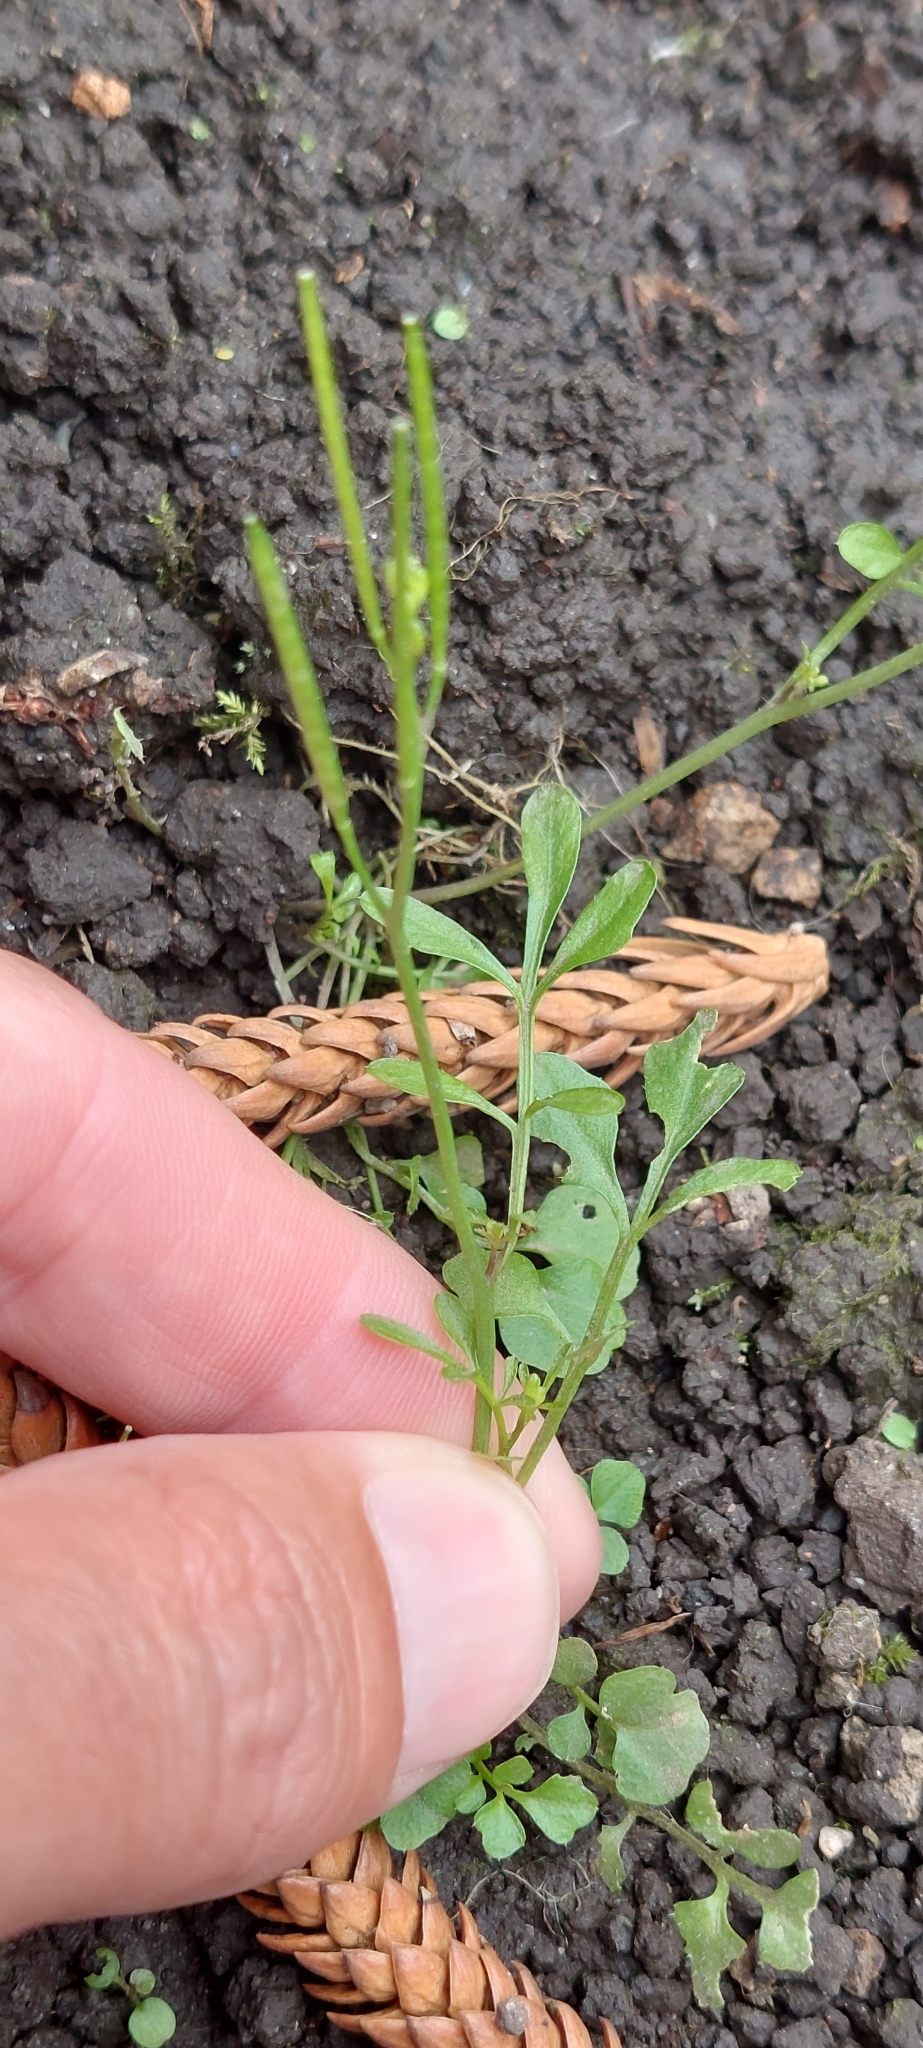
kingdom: Plantae
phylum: Tracheophyta
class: Magnoliopsida
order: Brassicales
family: Brassicaceae
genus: Cardamine
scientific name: Cardamine hirsuta
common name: Hairy bittercress
